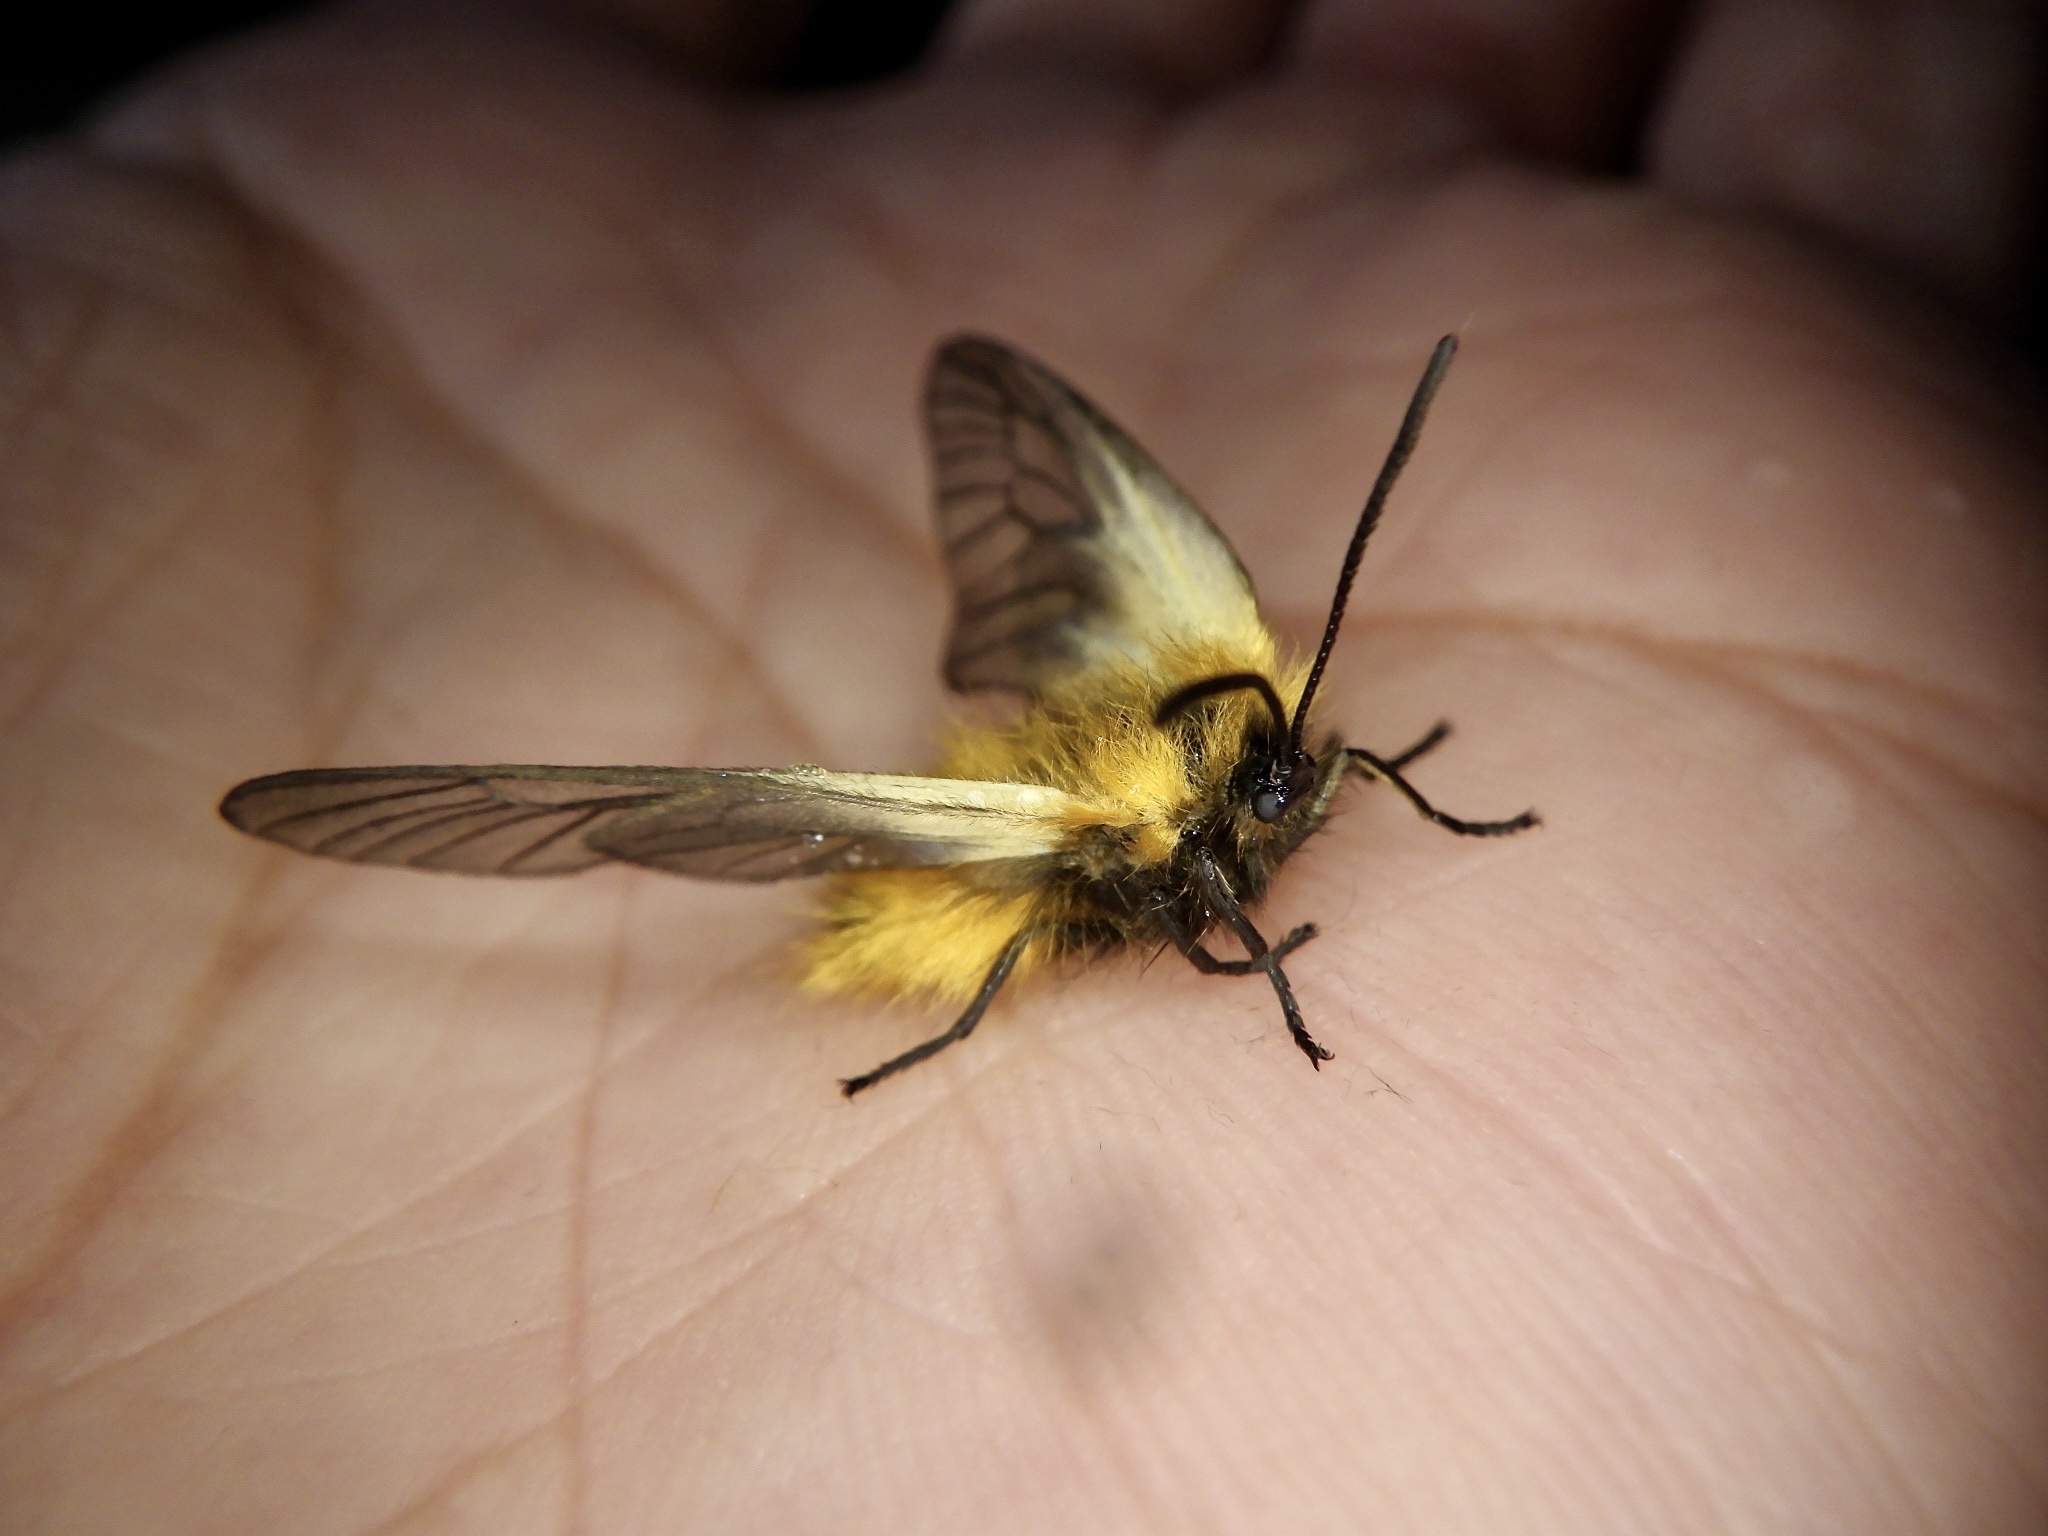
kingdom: Animalia
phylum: Arthropoda
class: Insecta
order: Lepidoptera
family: Zygaenidae
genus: Sinica
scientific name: Sinica sinica
